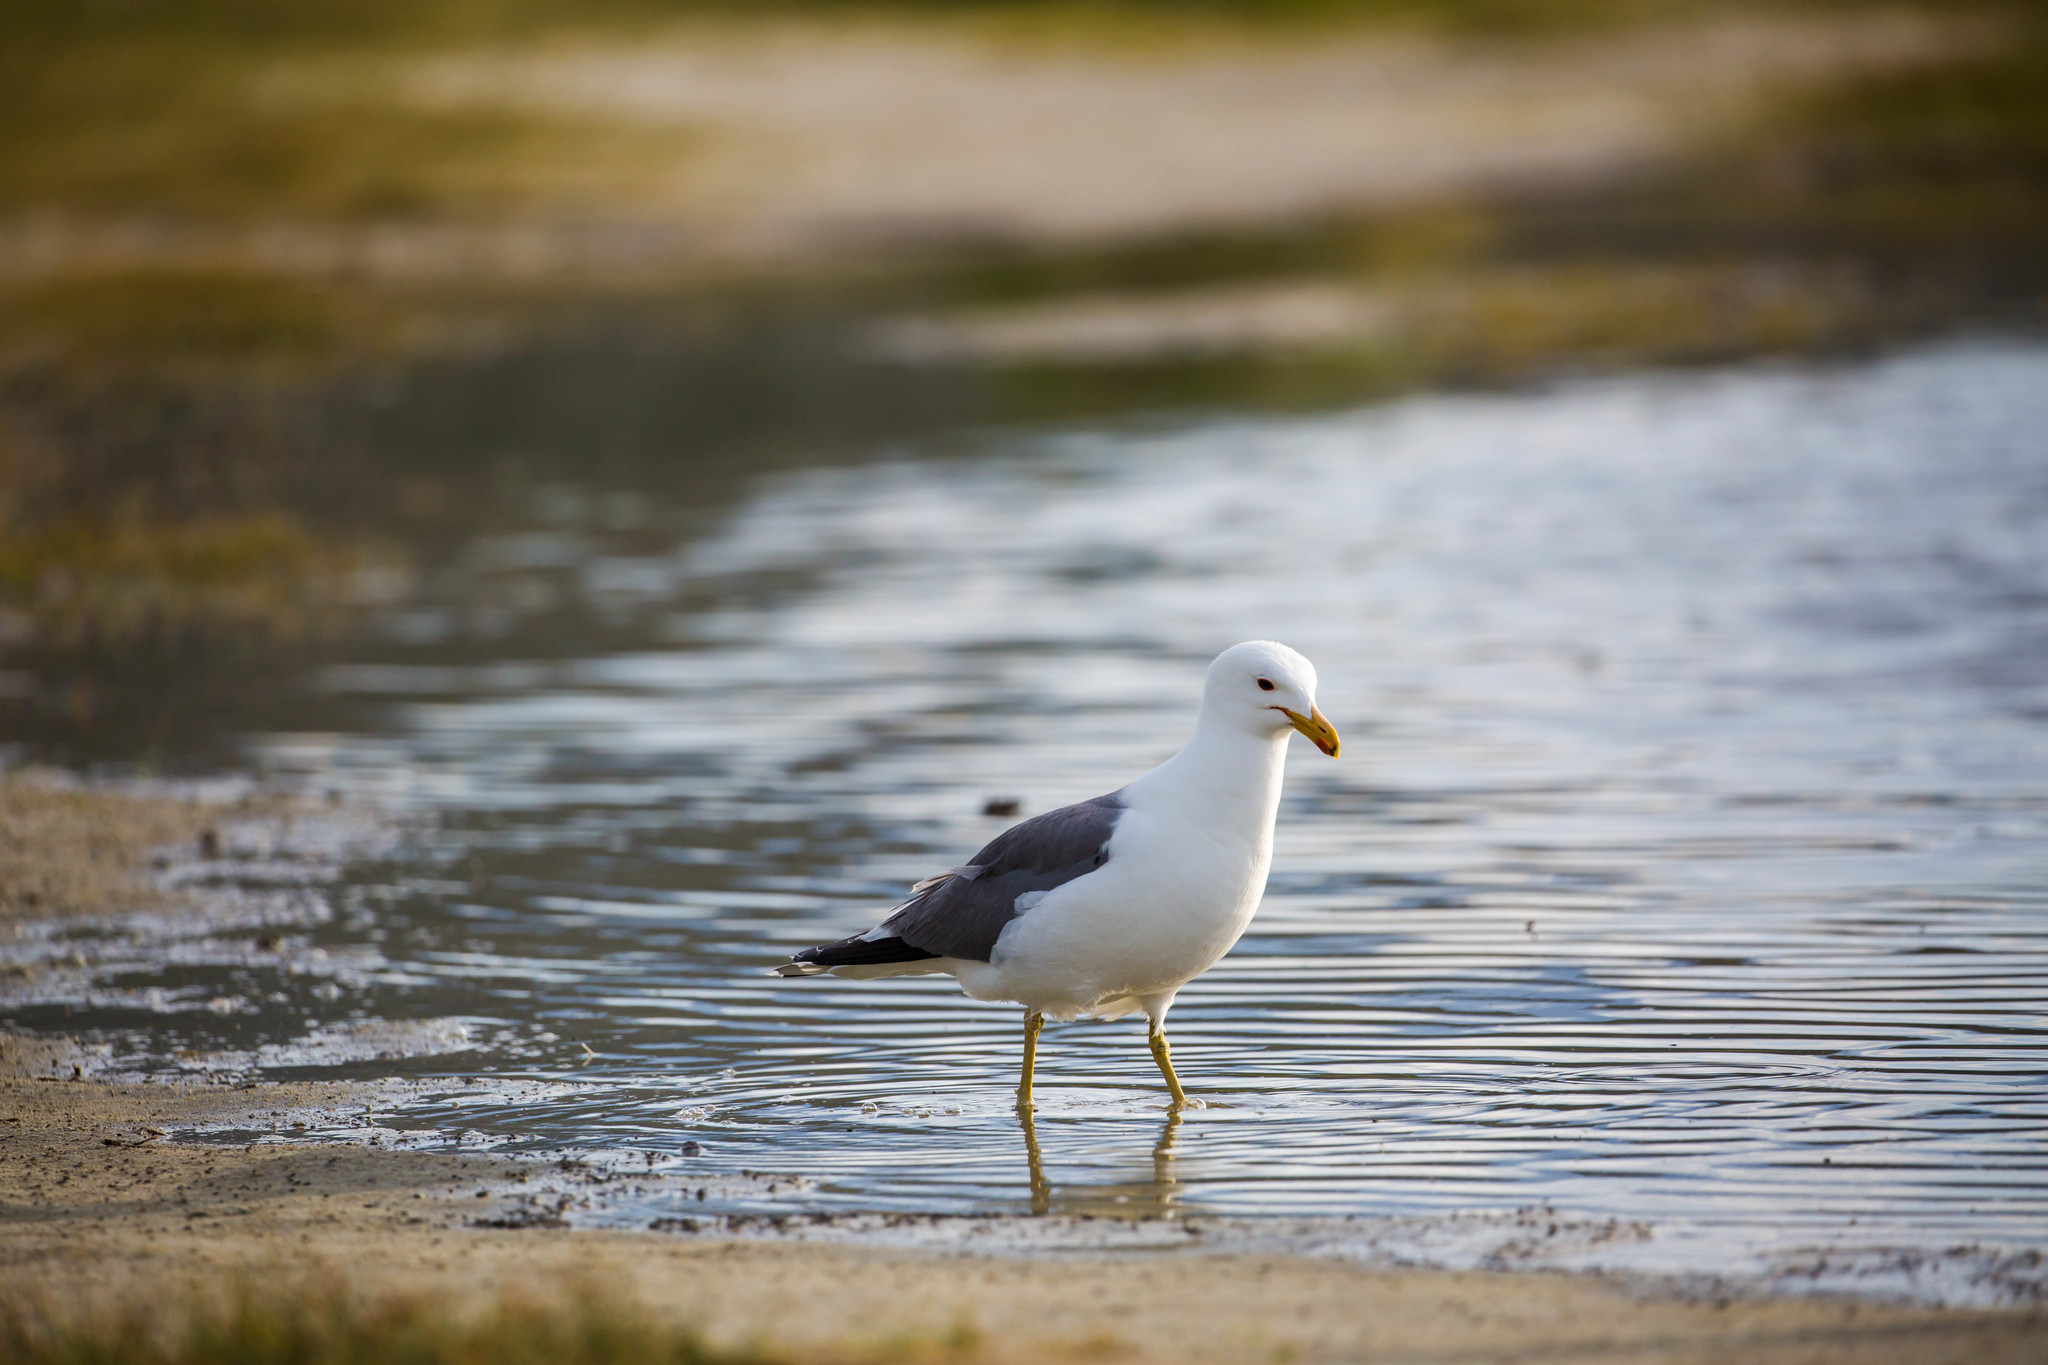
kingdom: Animalia
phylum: Chordata
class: Aves
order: Charadriiformes
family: Laridae
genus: Larus
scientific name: Larus californicus
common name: California gull
